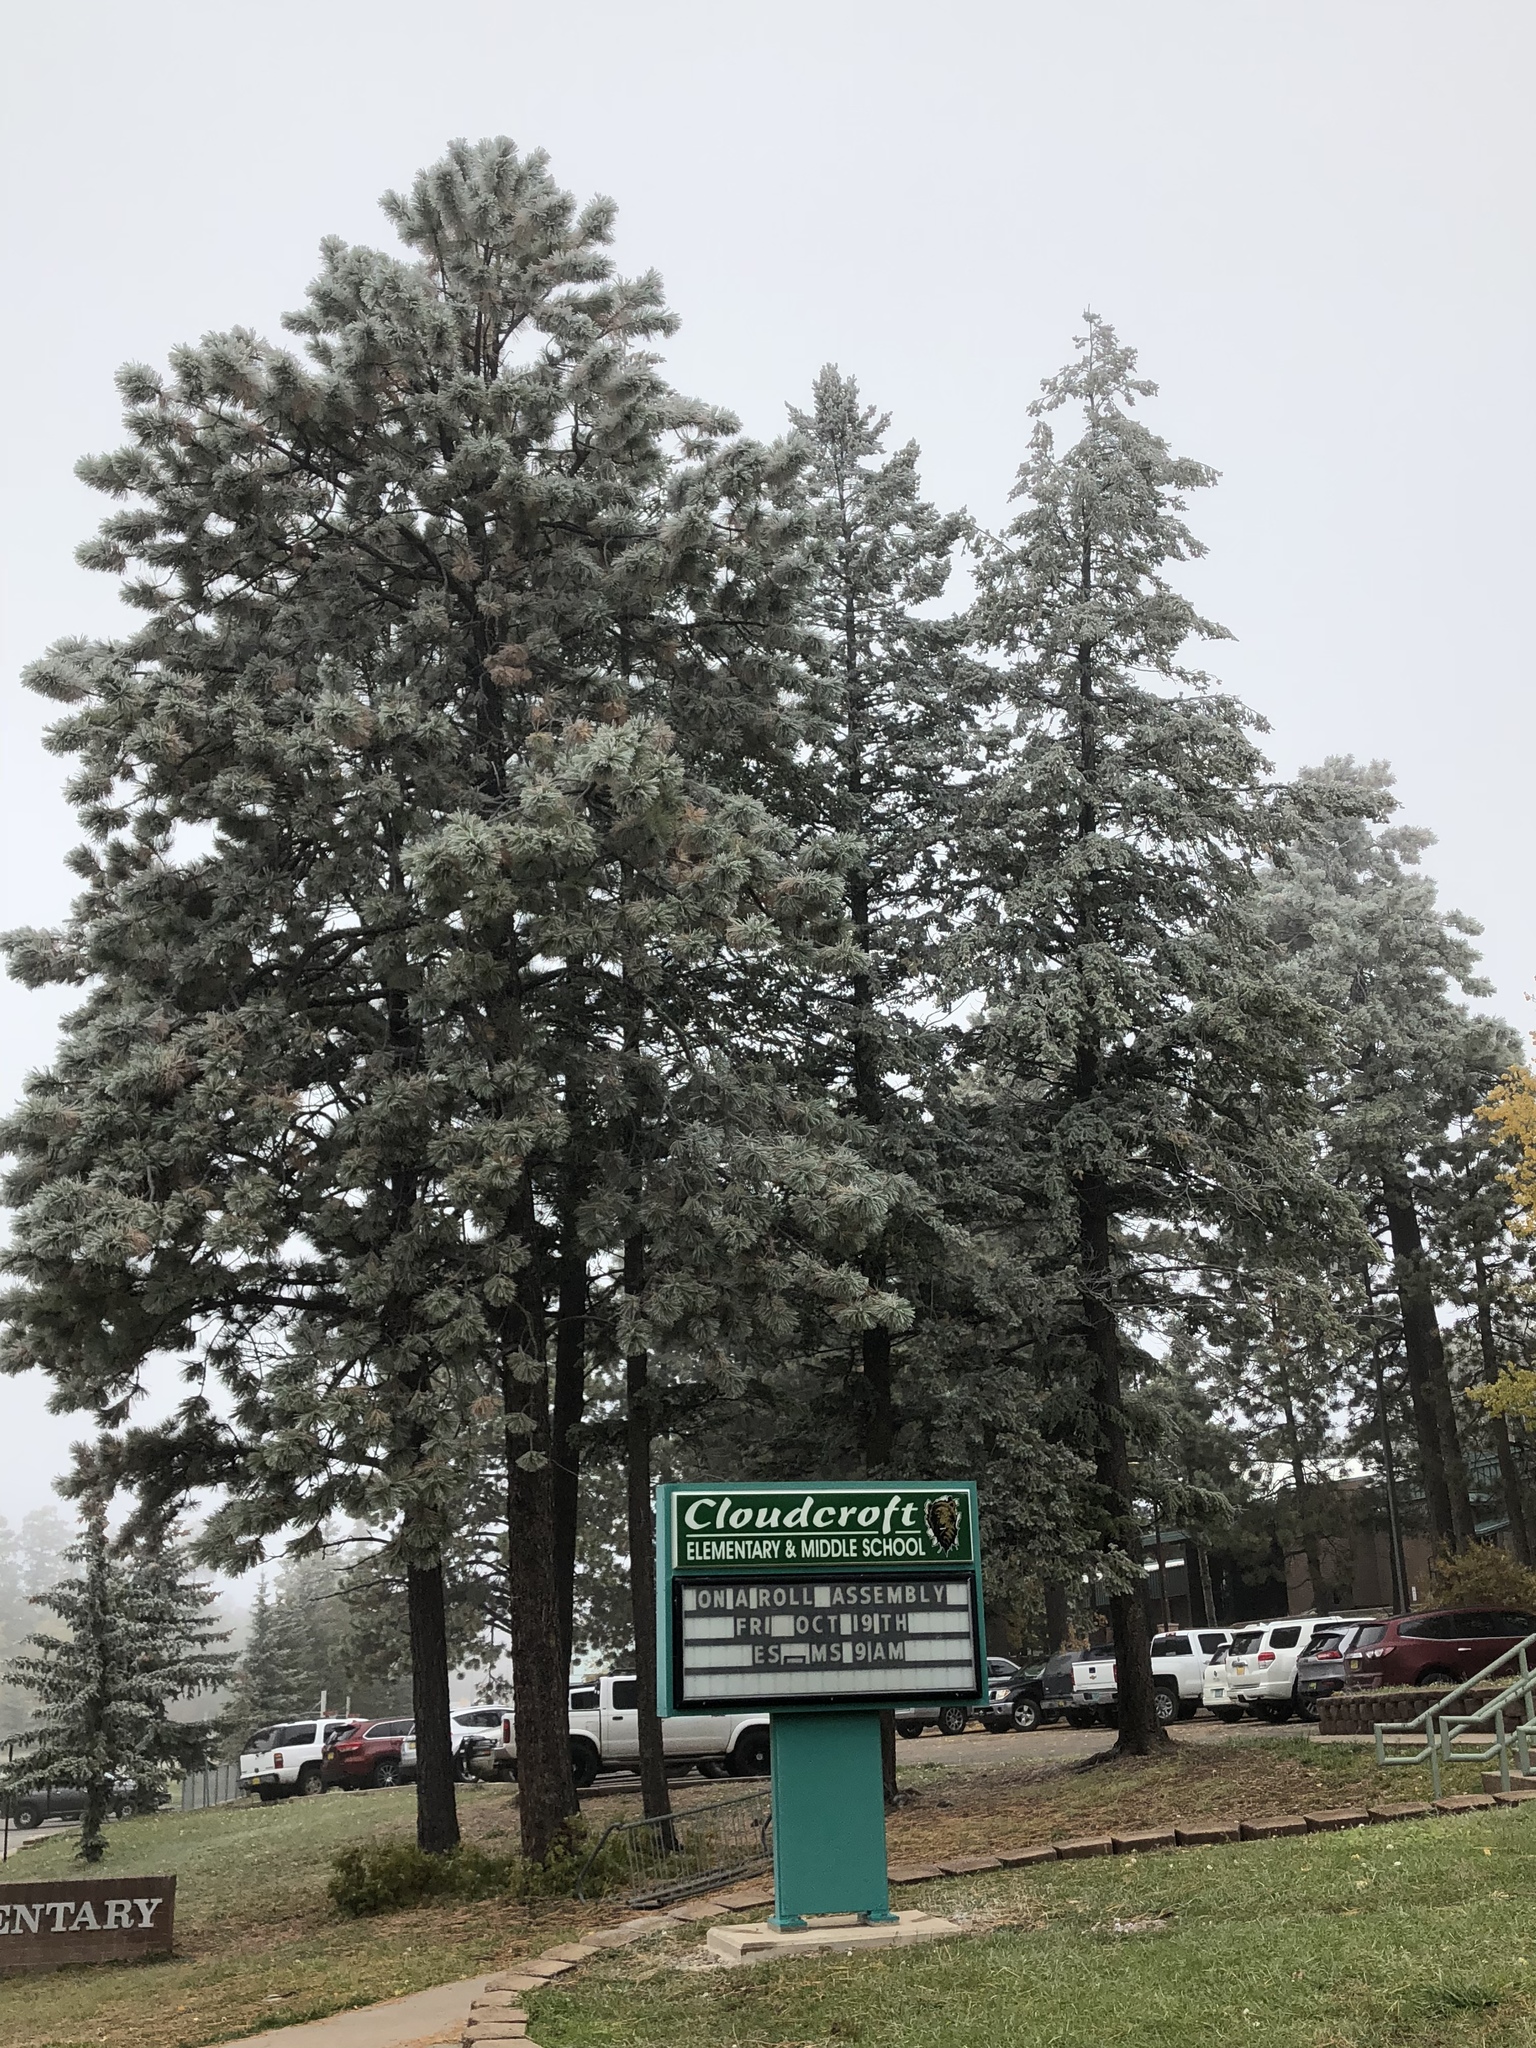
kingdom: Plantae
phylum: Tracheophyta
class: Pinopsida
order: Pinales
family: Pinaceae
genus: Pinus
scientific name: Pinus ponderosa
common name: Western yellow-pine
